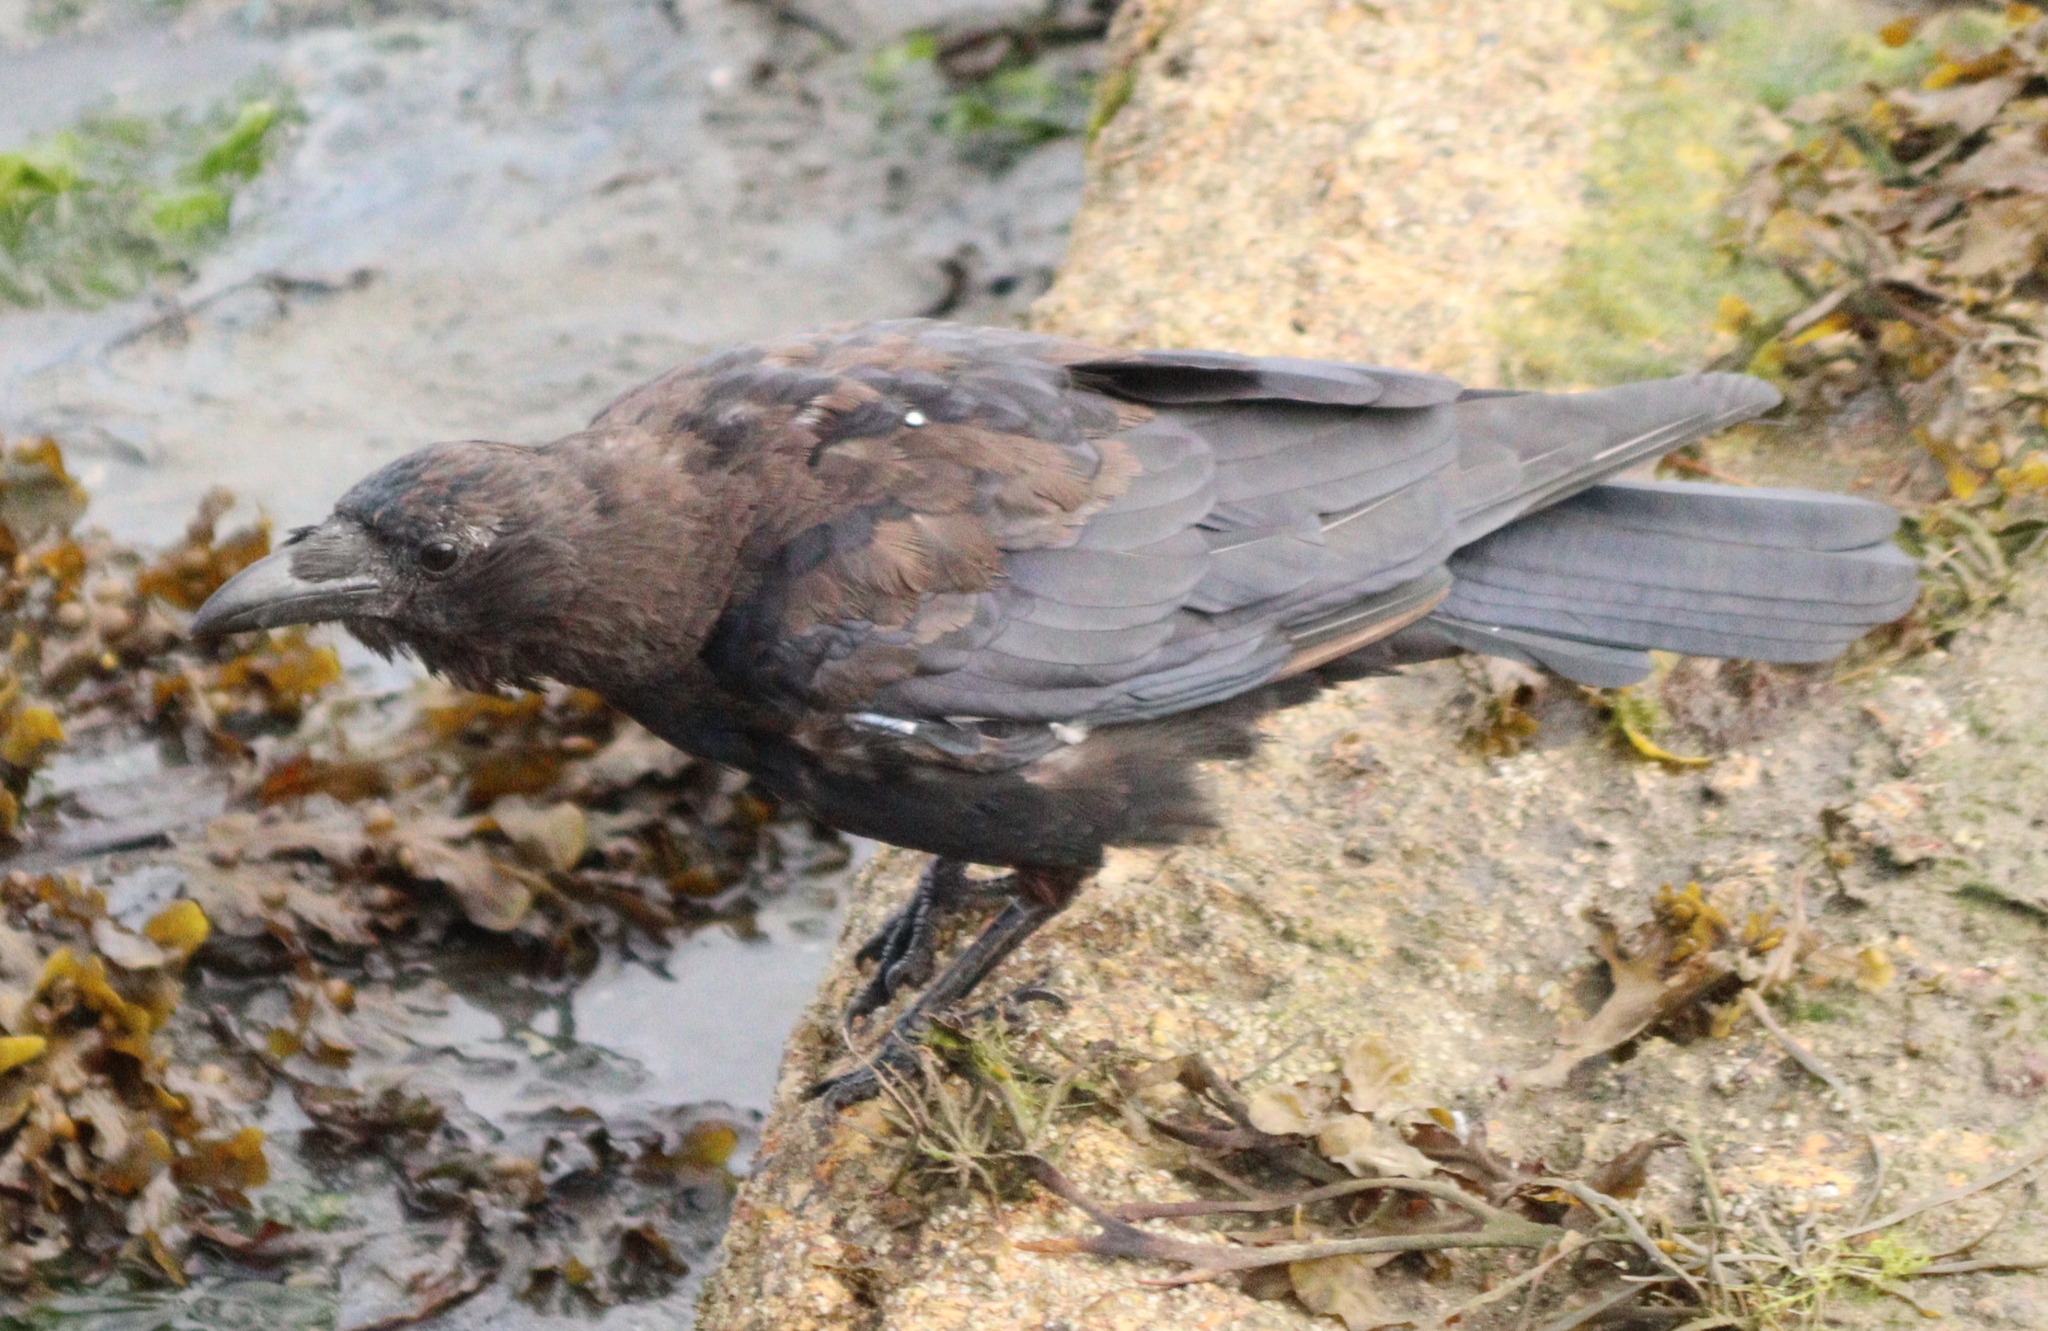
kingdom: Animalia
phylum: Chordata
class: Aves
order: Passeriformes
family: Corvidae
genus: Corvus
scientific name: Corvus corone
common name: Carrion crow
